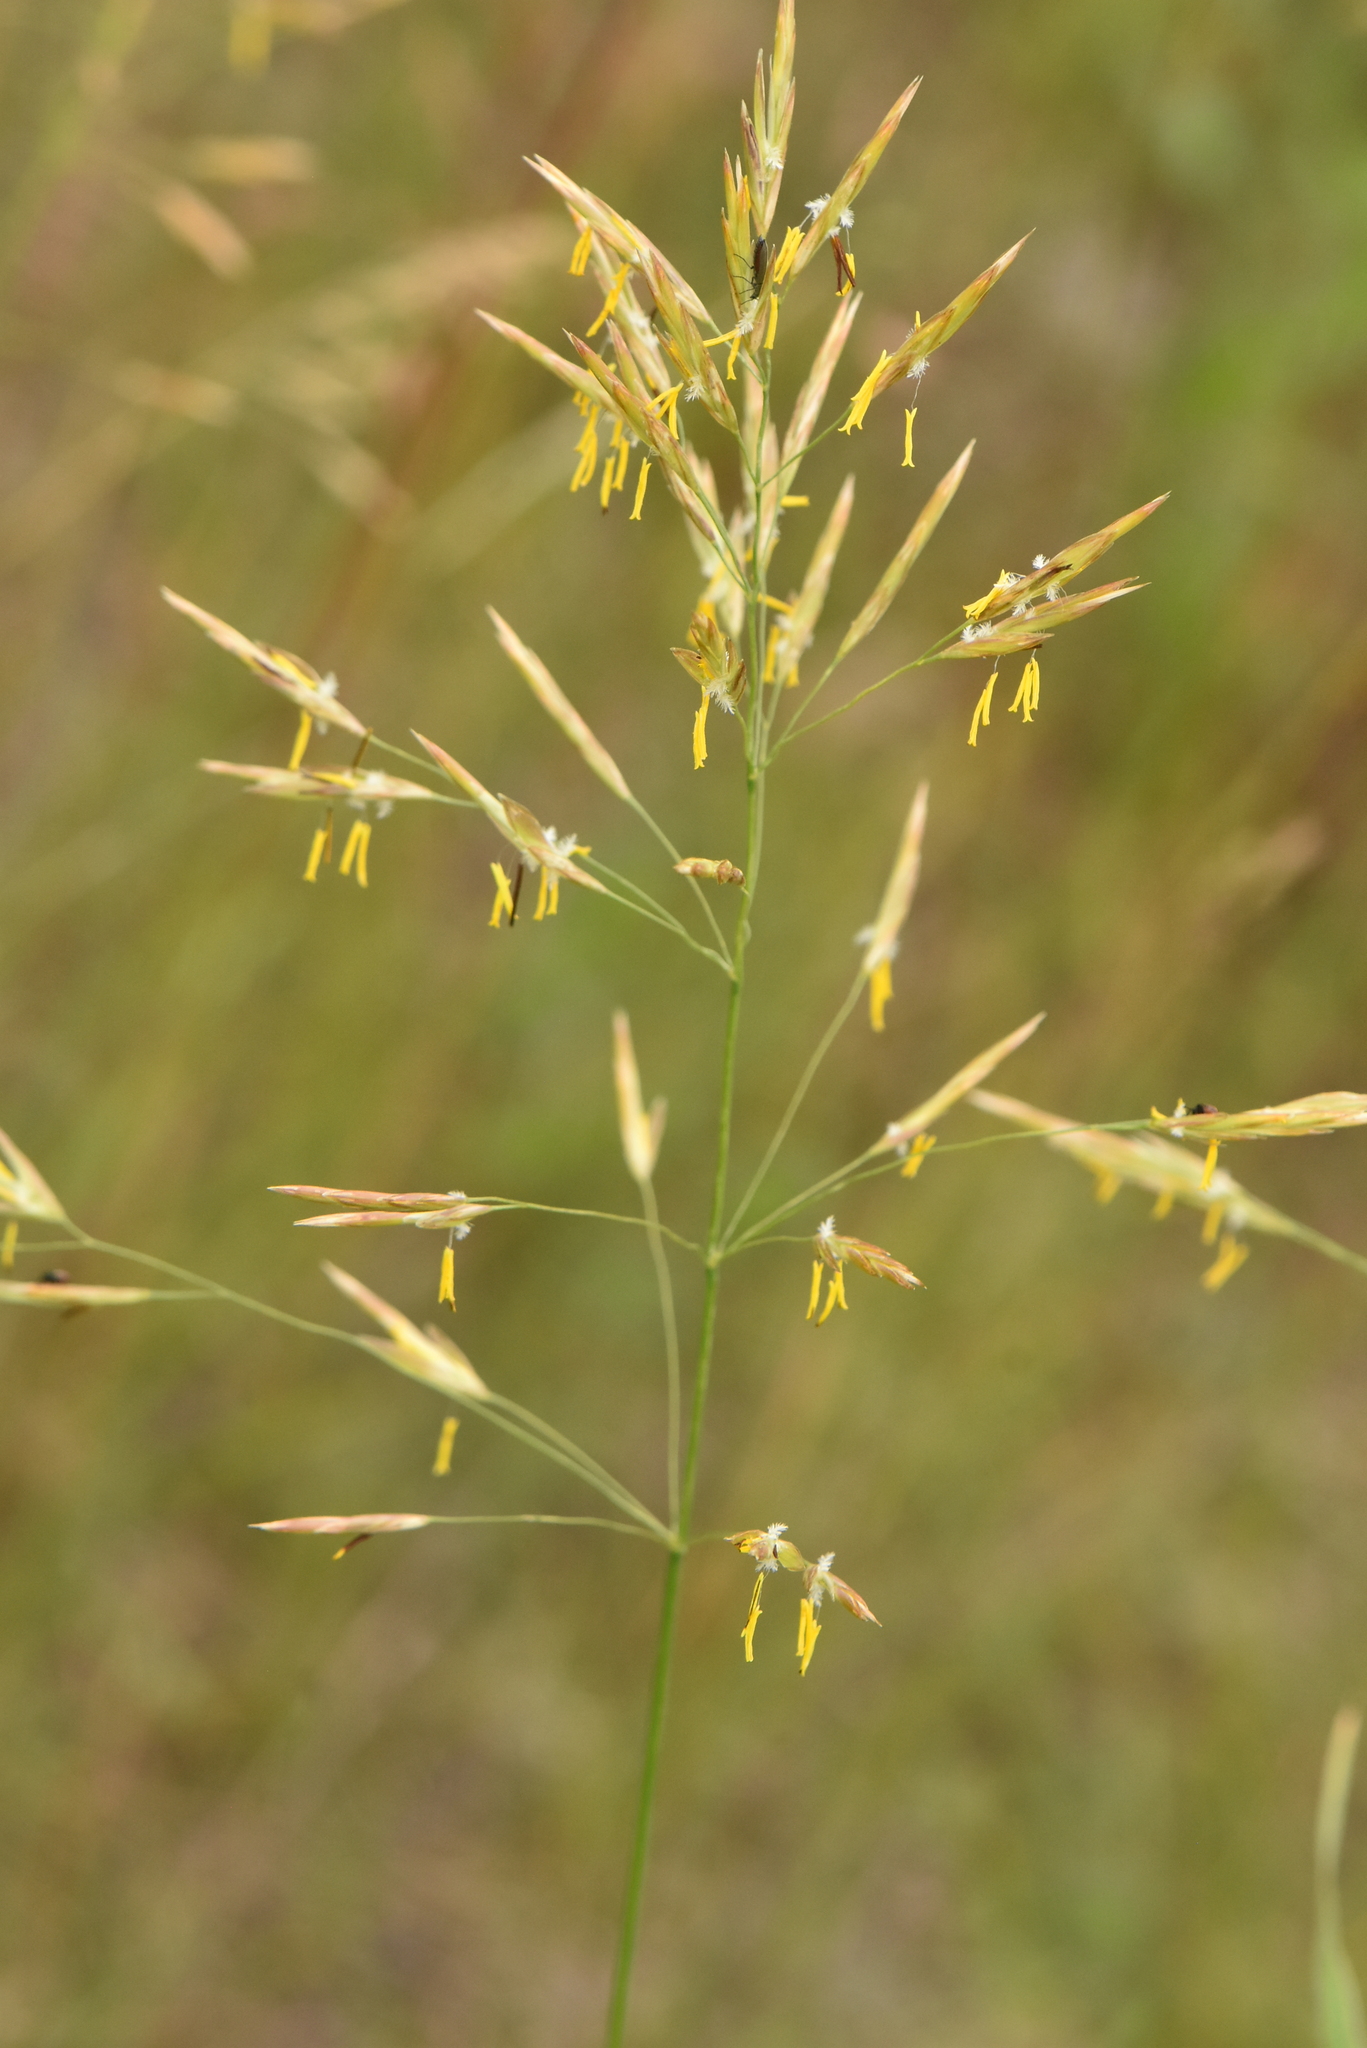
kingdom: Plantae
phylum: Tracheophyta
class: Liliopsida
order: Poales
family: Poaceae
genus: Bromus
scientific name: Bromus inermis
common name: Smooth brome
